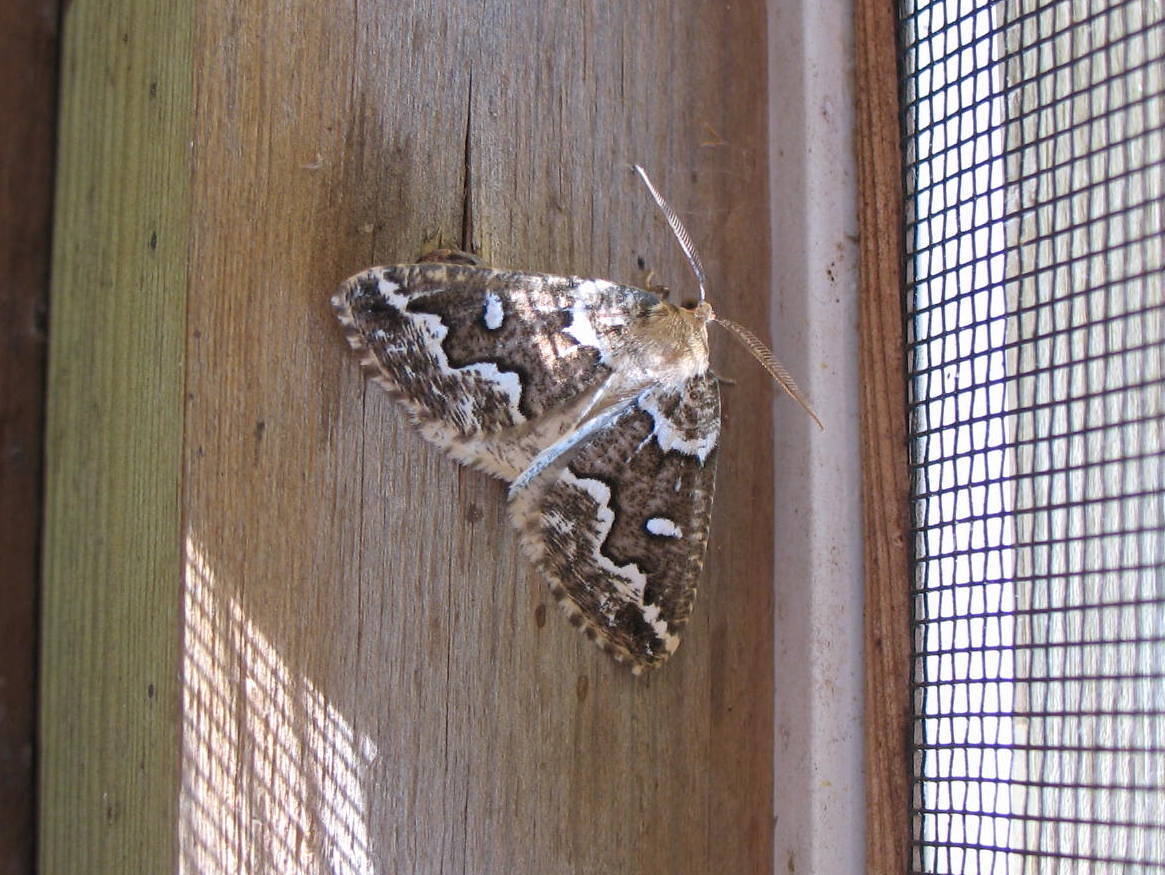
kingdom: Animalia
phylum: Arthropoda
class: Insecta
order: Lepidoptera
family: Geometridae
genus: Caripeta
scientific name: Caripeta divisata
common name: Gray spruce looper
